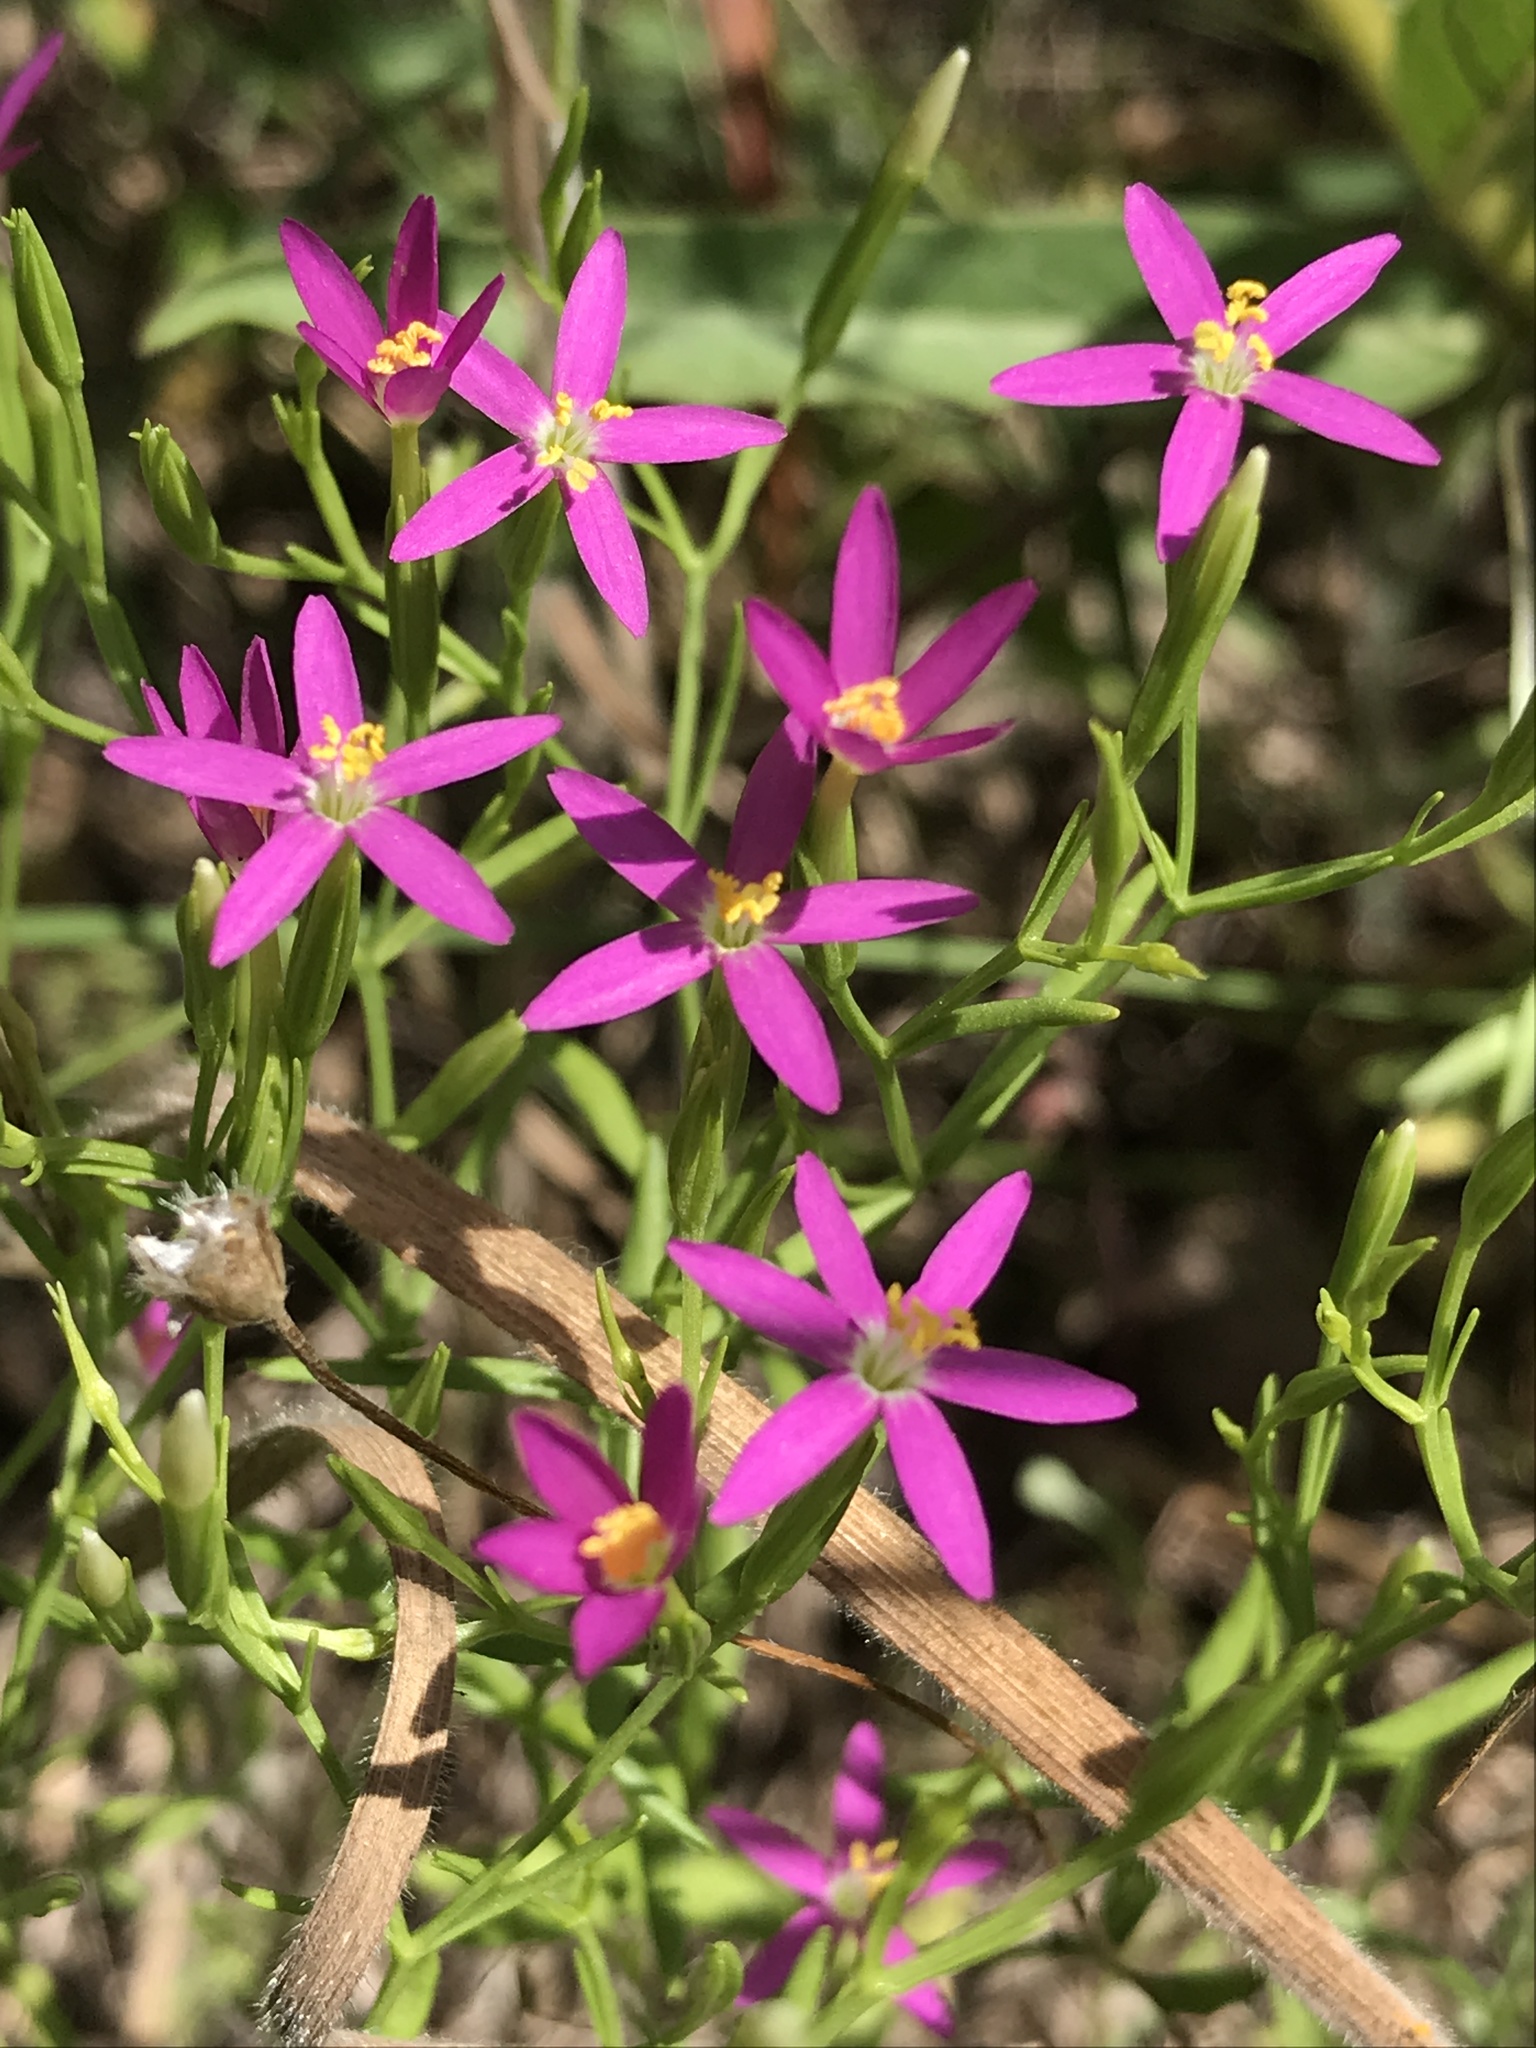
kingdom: Plantae
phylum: Tracheophyta
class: Magnoliopsida
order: Gentianales
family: Gentianaceae
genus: Zeltnera
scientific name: Zeltnera texensis
